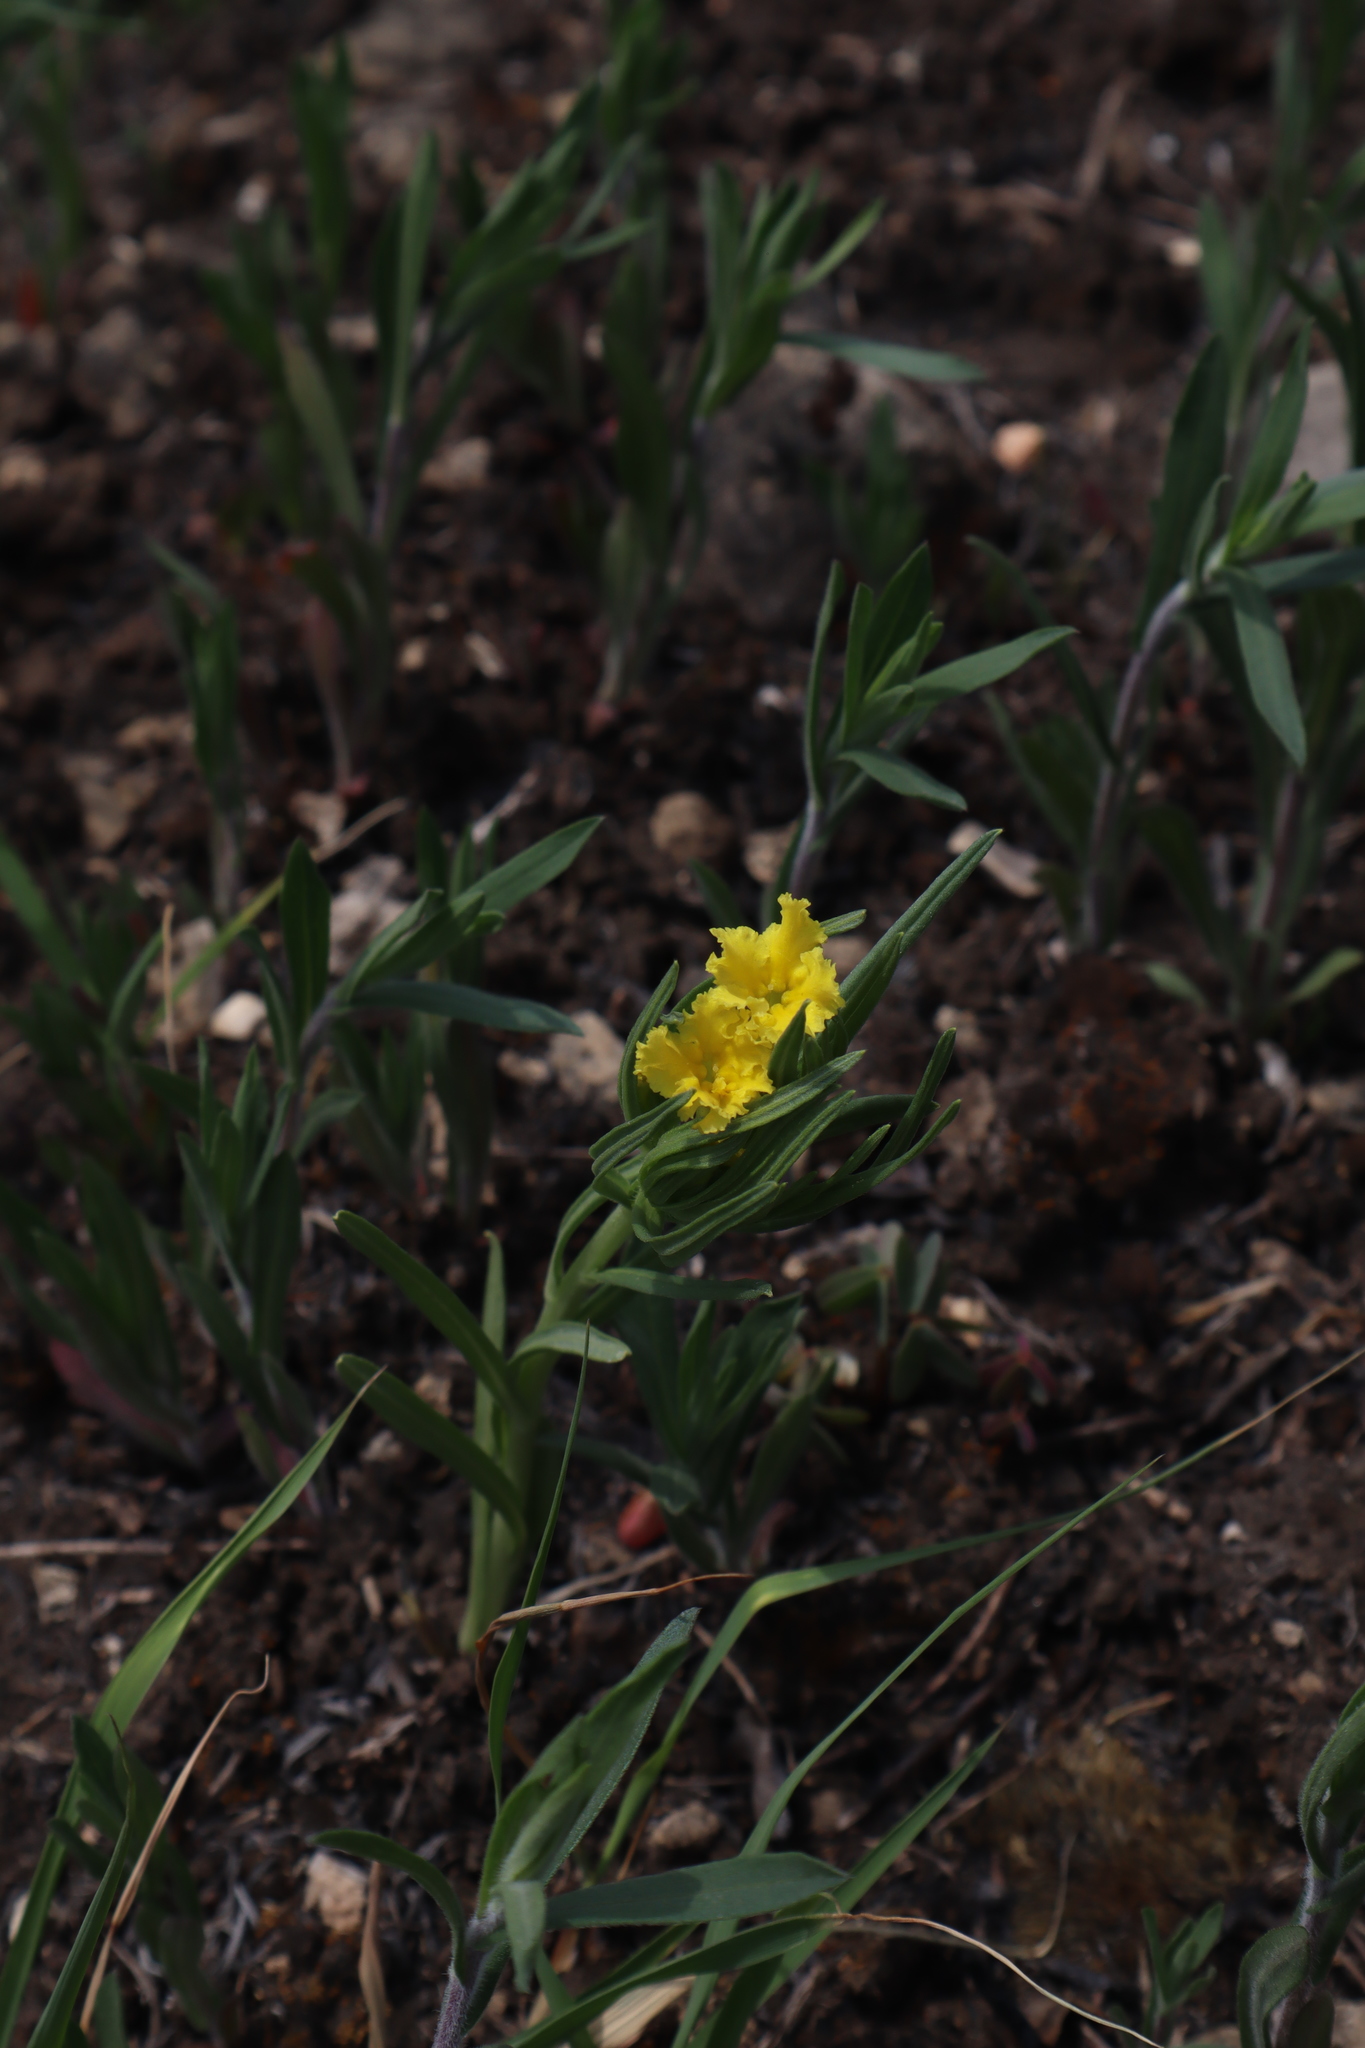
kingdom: Plantae
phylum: Tracheophyta
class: Magnoliopsida
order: Boraginales
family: Boraginaceae
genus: Lithospermum
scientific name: Lithospermum incisum
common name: Fringed gromwell
